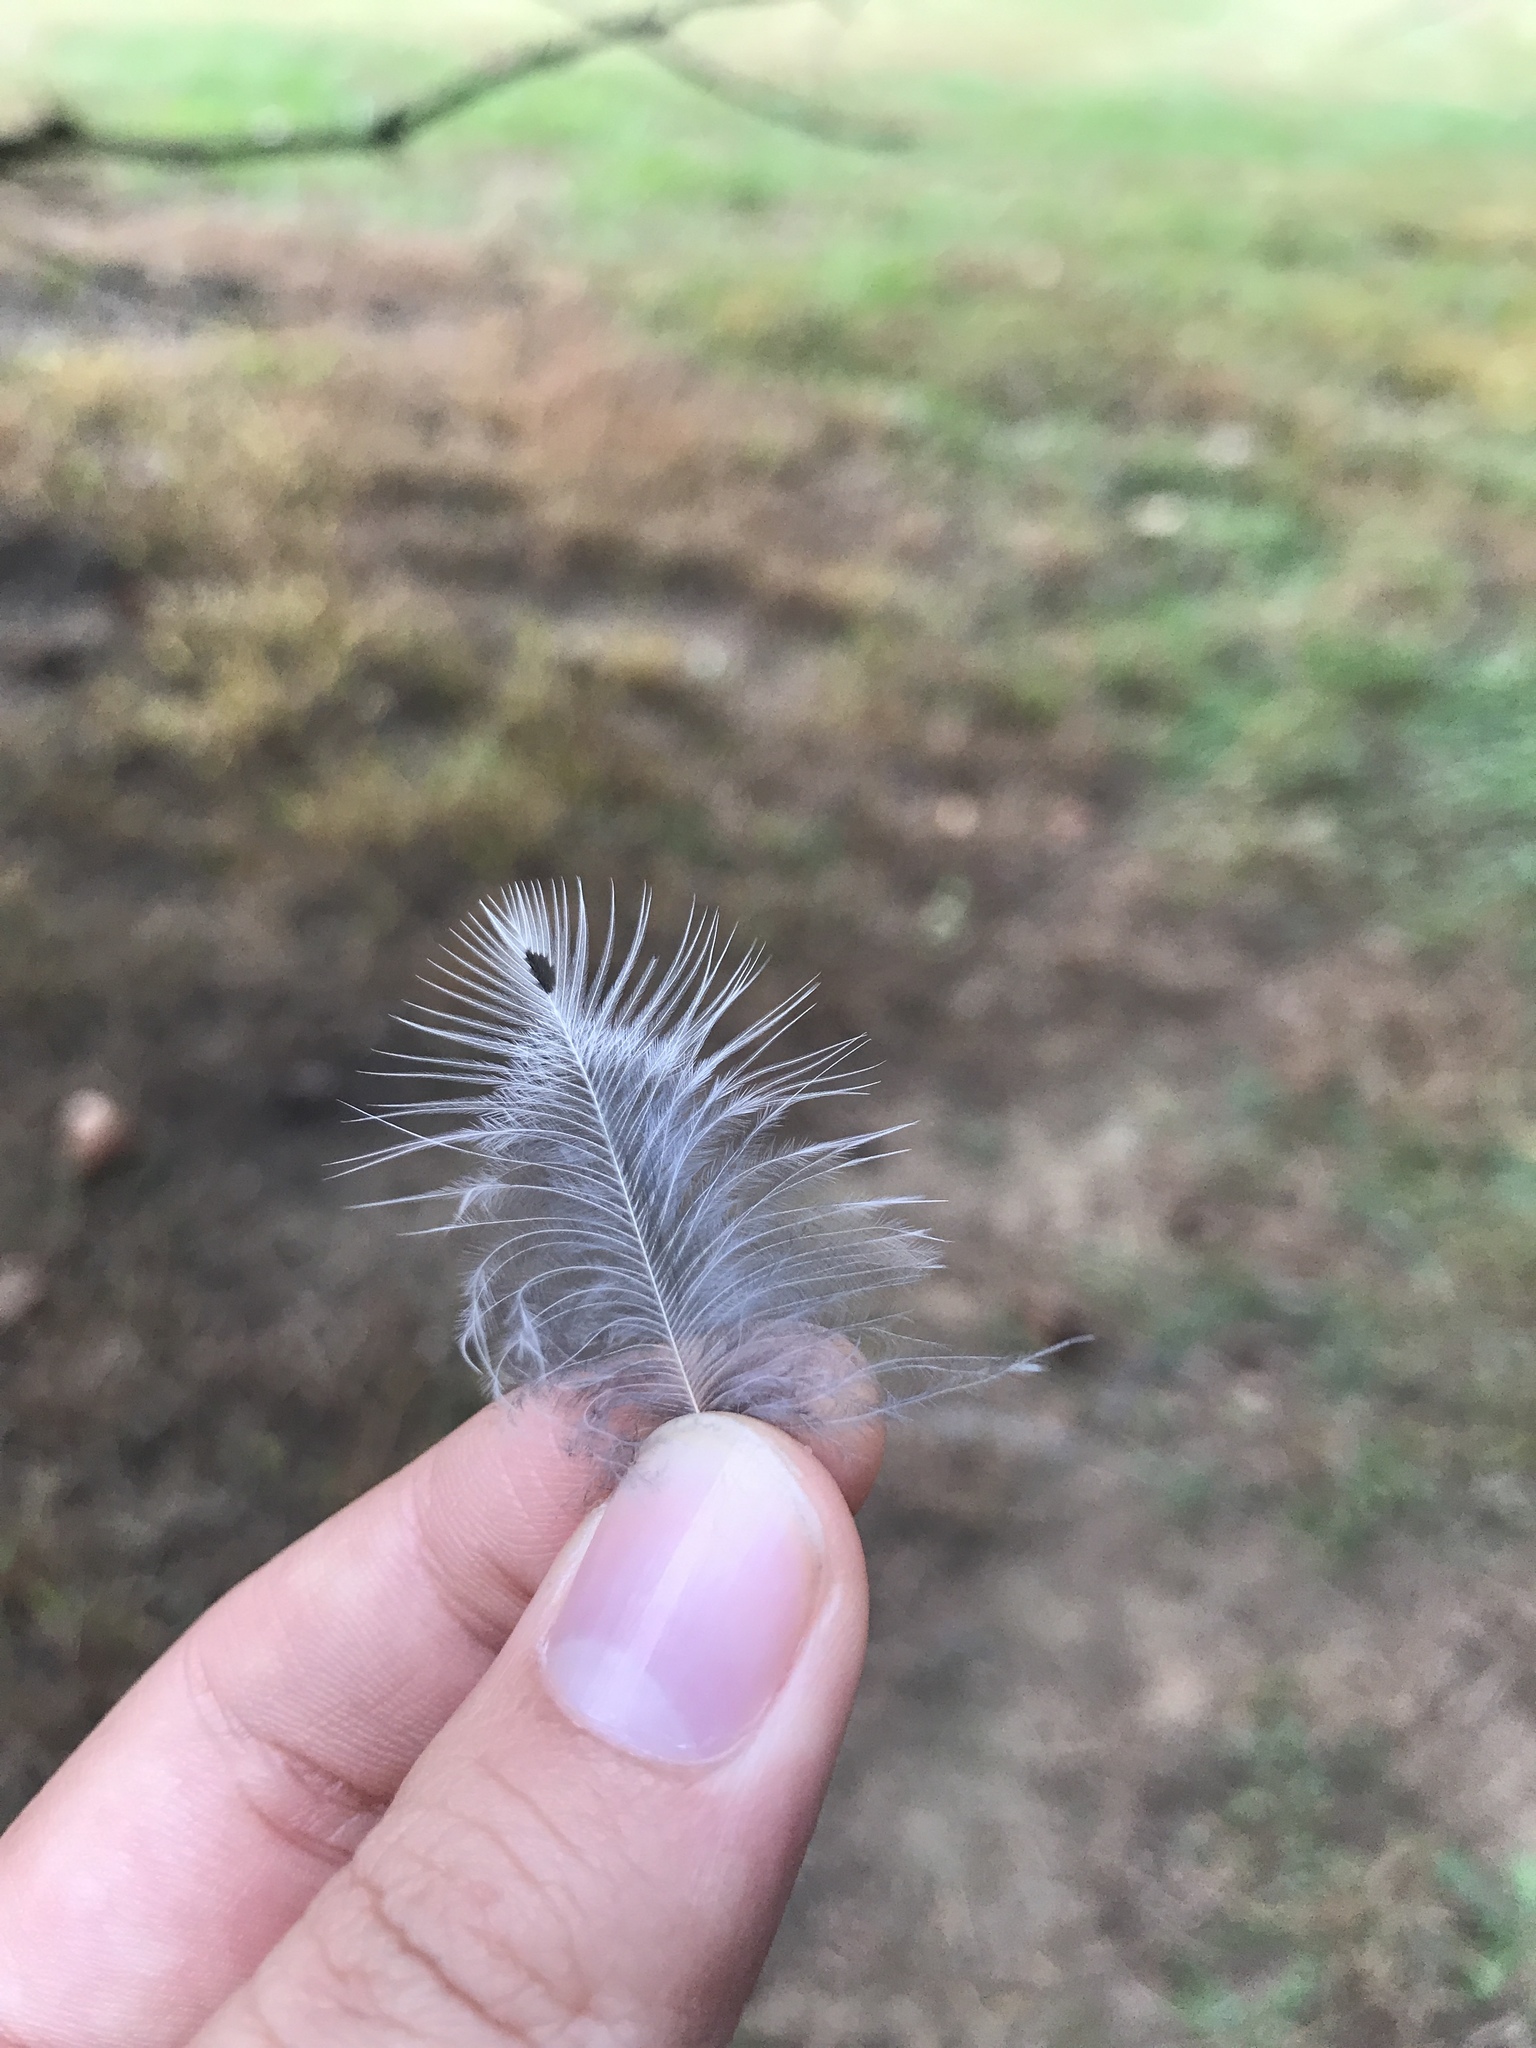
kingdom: Animalia
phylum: Chordata
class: Aves
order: Piciformes
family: Picidae
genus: Colaptes
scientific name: Colaptes auratus
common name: Northern flicker
